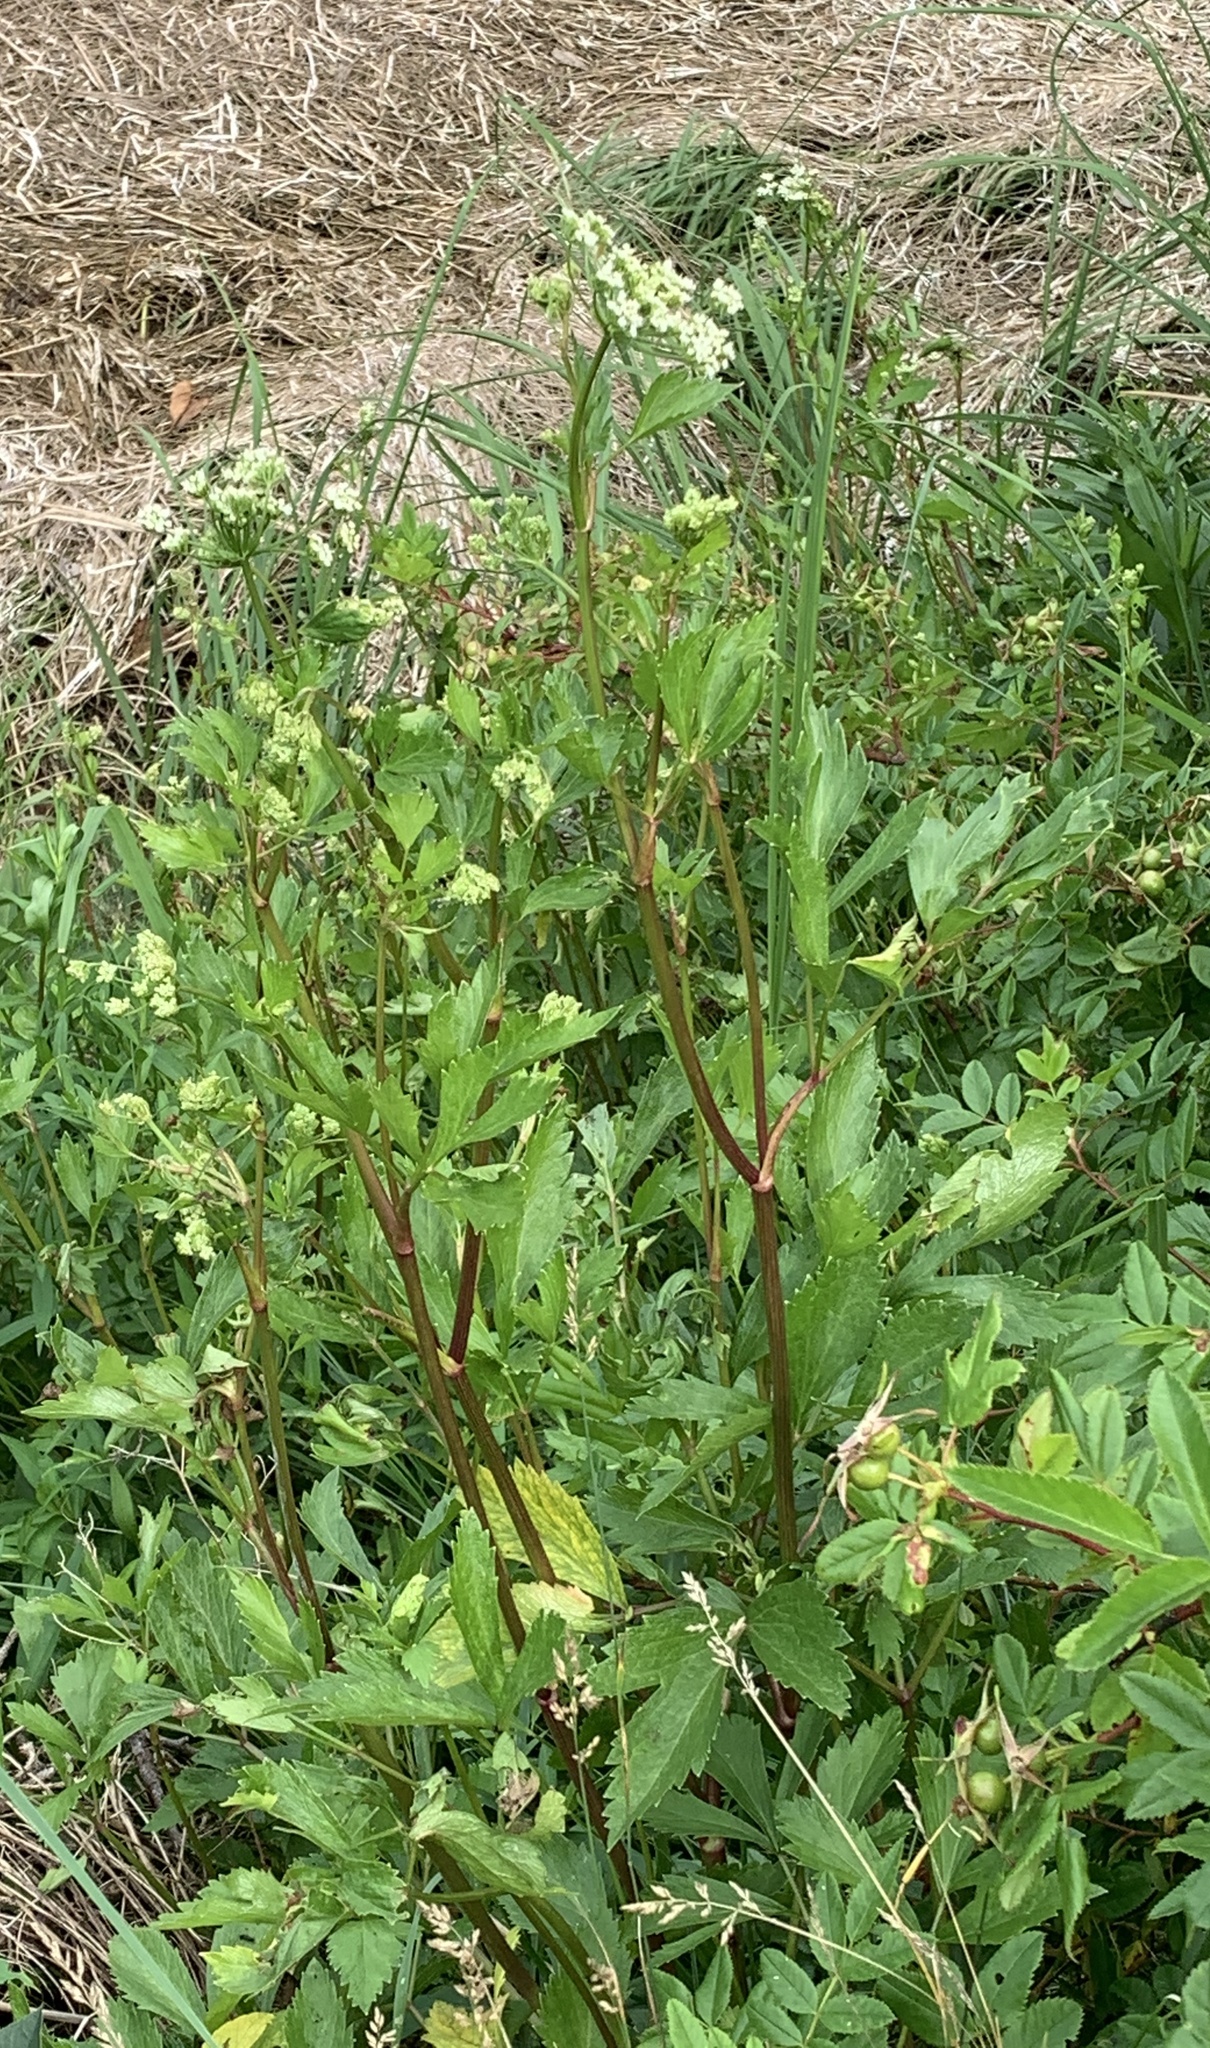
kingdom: Plantae
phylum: Tracheophyta
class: Magnoliopsida
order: Apiales
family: Apiaceae
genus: Ligusticum
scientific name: Ligusticum scothicum
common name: Beach lovage
